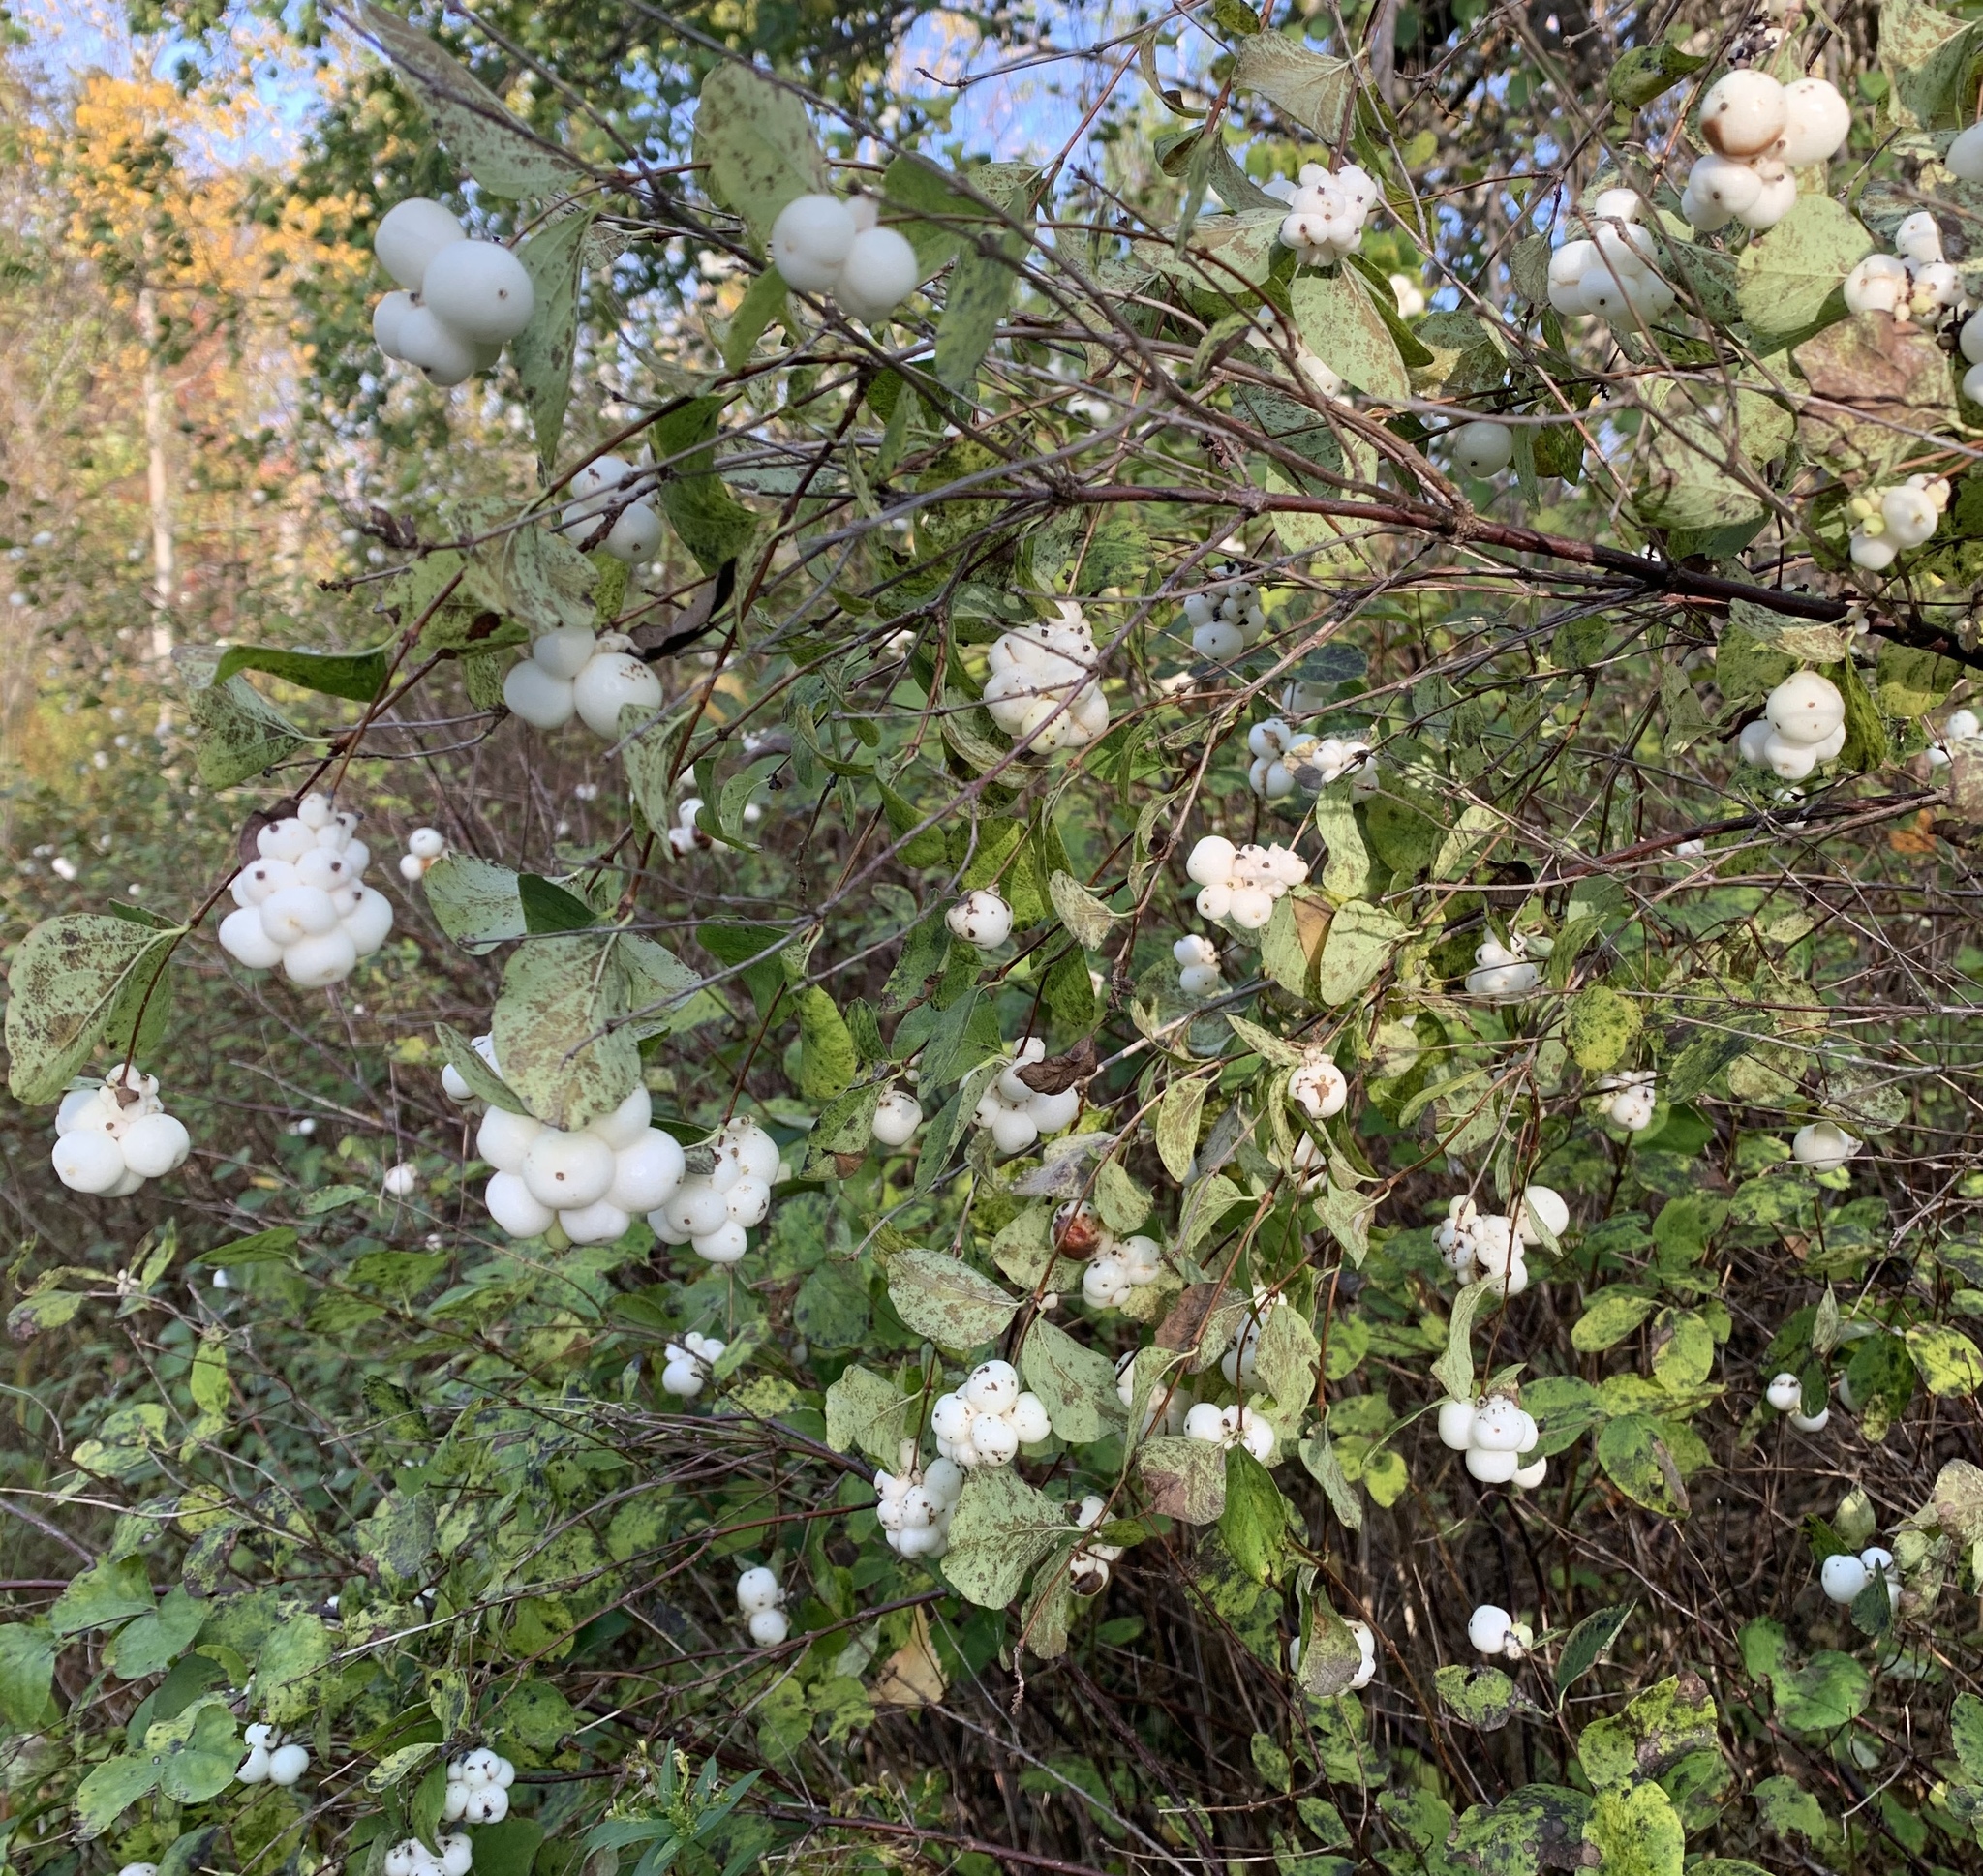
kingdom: Plantae
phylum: Tracheophyta
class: Magnoliopsida
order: Dipsacales
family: Caprifoliaceae
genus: Symphoricarpos
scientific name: Symphoricarpos albus
